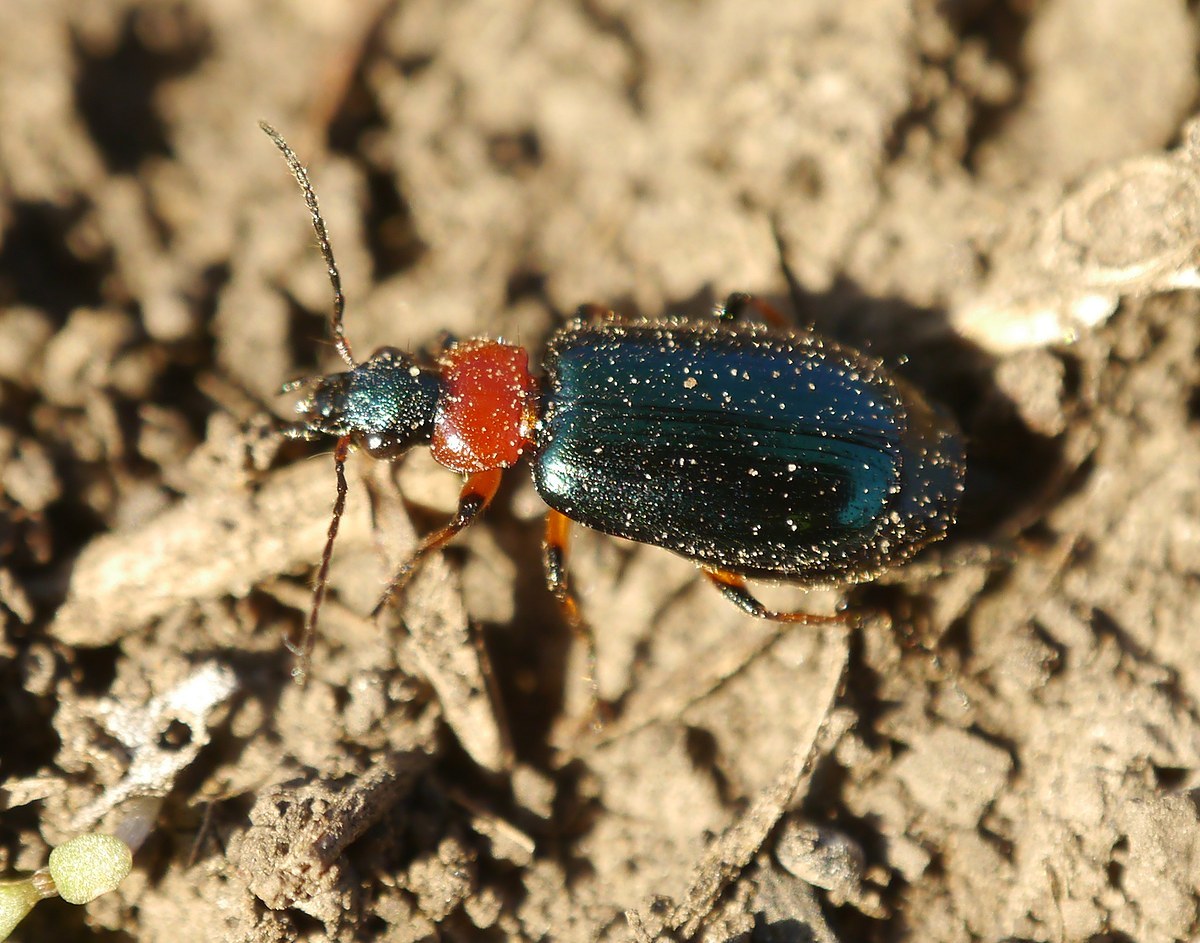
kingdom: Animalia
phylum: Arthropoda
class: Insecta
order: Coleoptera
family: Carabidae
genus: Lebia
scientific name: Lebia cyanocephala
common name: Blue plunderer
